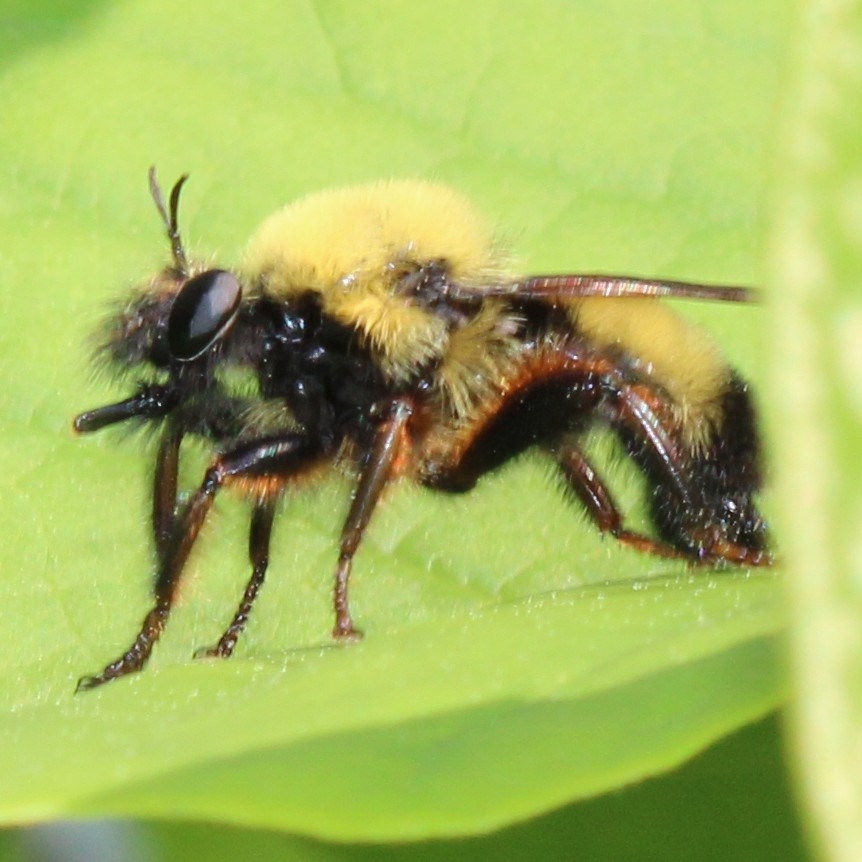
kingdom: Animalia
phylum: Arthropoda
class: Insecta
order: Diptera
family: Asilidae
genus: Laphria
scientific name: Laphria thoracica
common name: Bumble bee mimic robber fly
